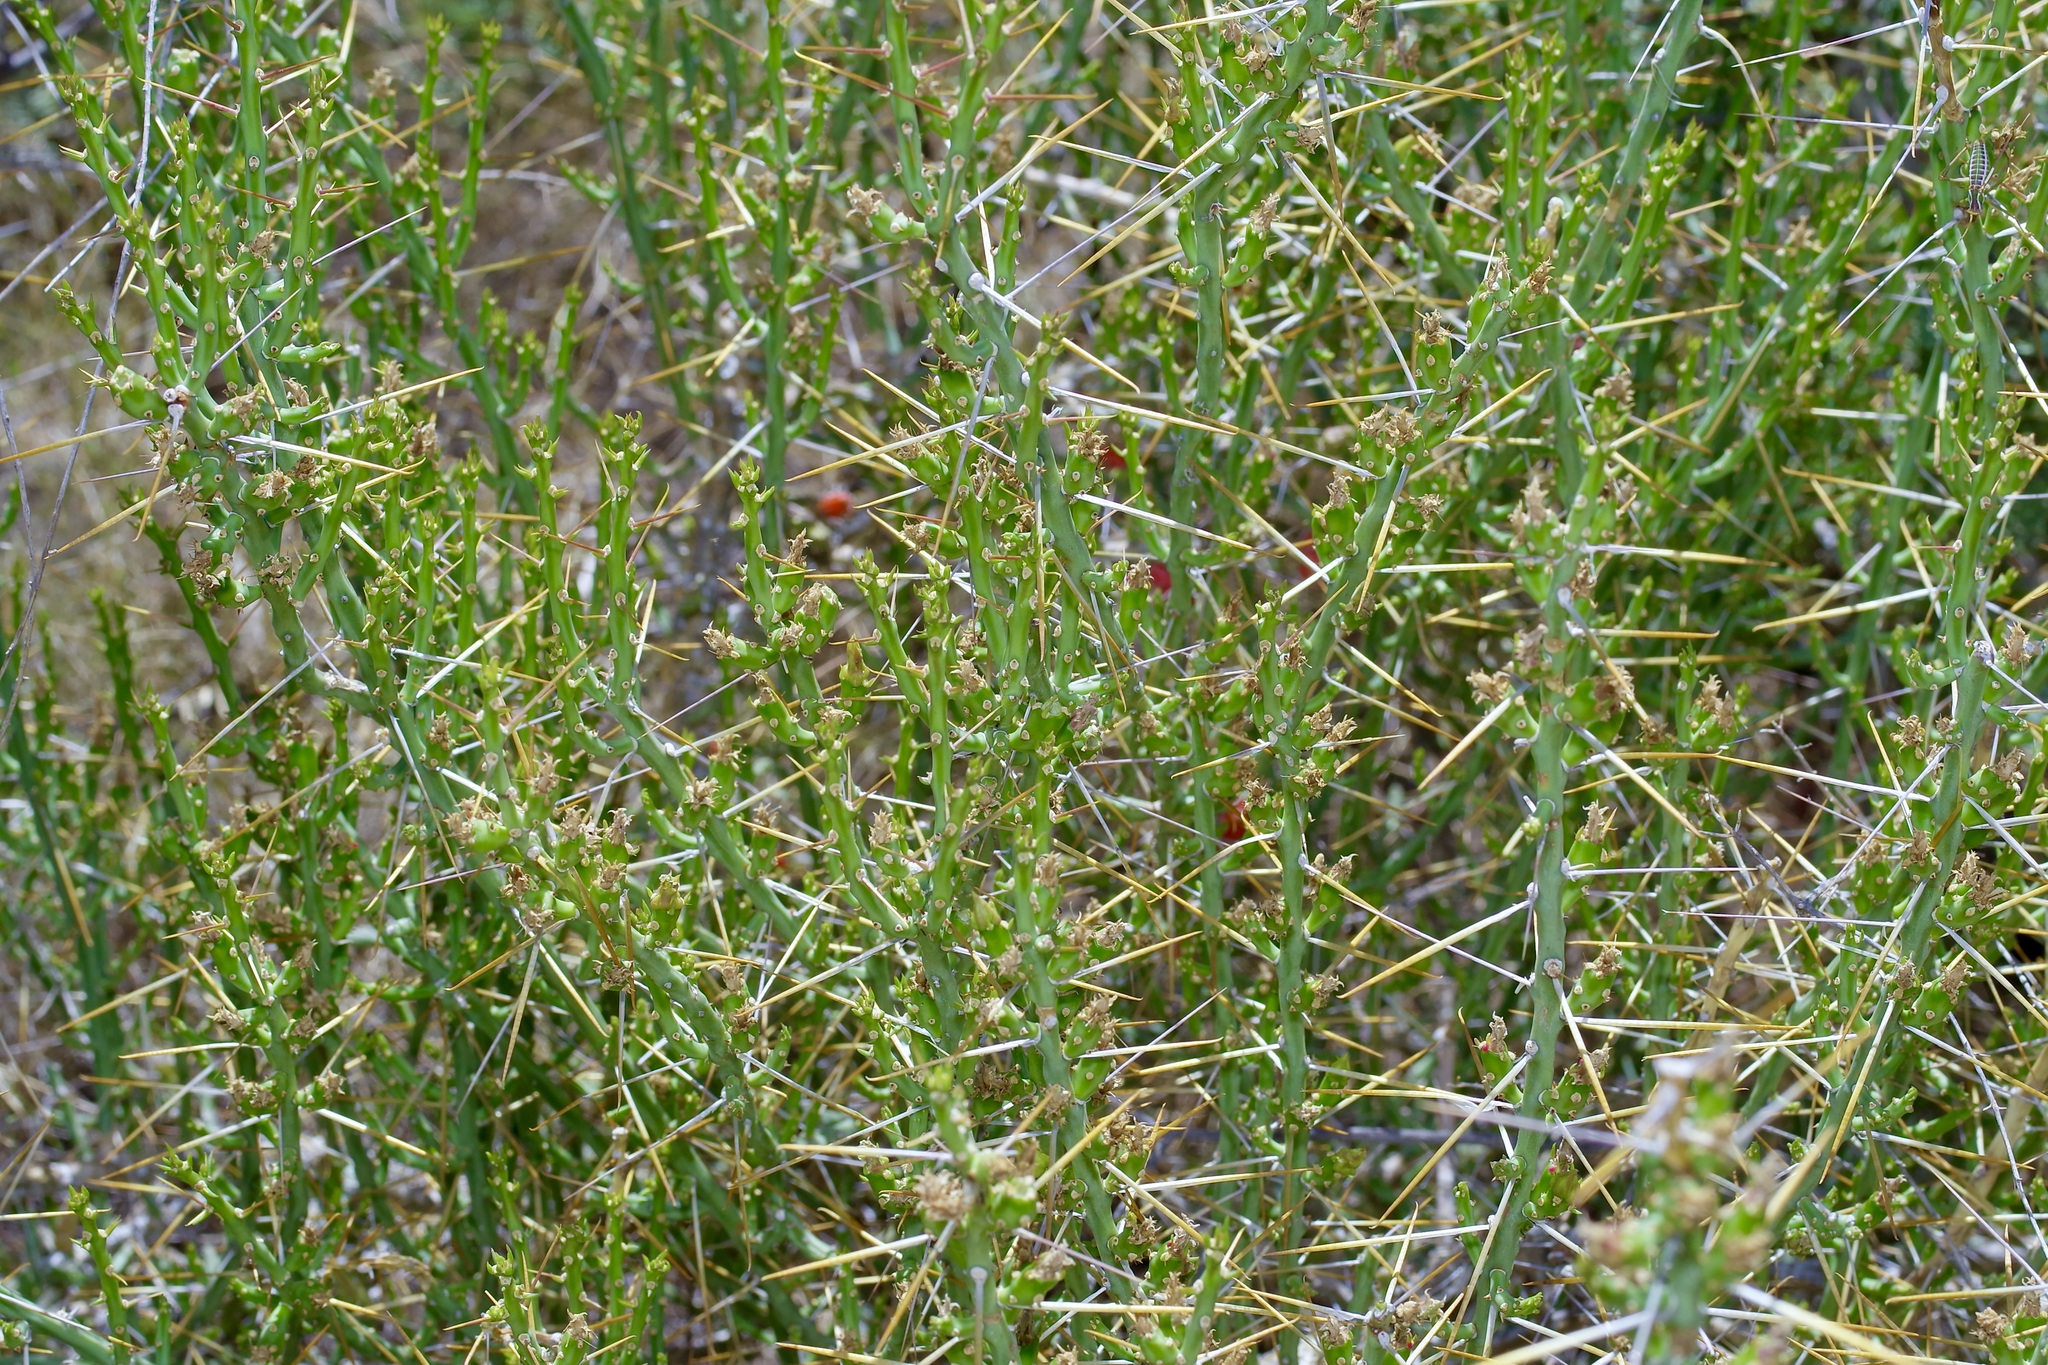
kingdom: Plantae
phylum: Tracheophyta
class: Magnoliopsida
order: Caryophyllales
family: Cactaceae
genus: Cylindropuntia
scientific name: Cylindropuntia leptocaulis
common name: Christmas cactus
